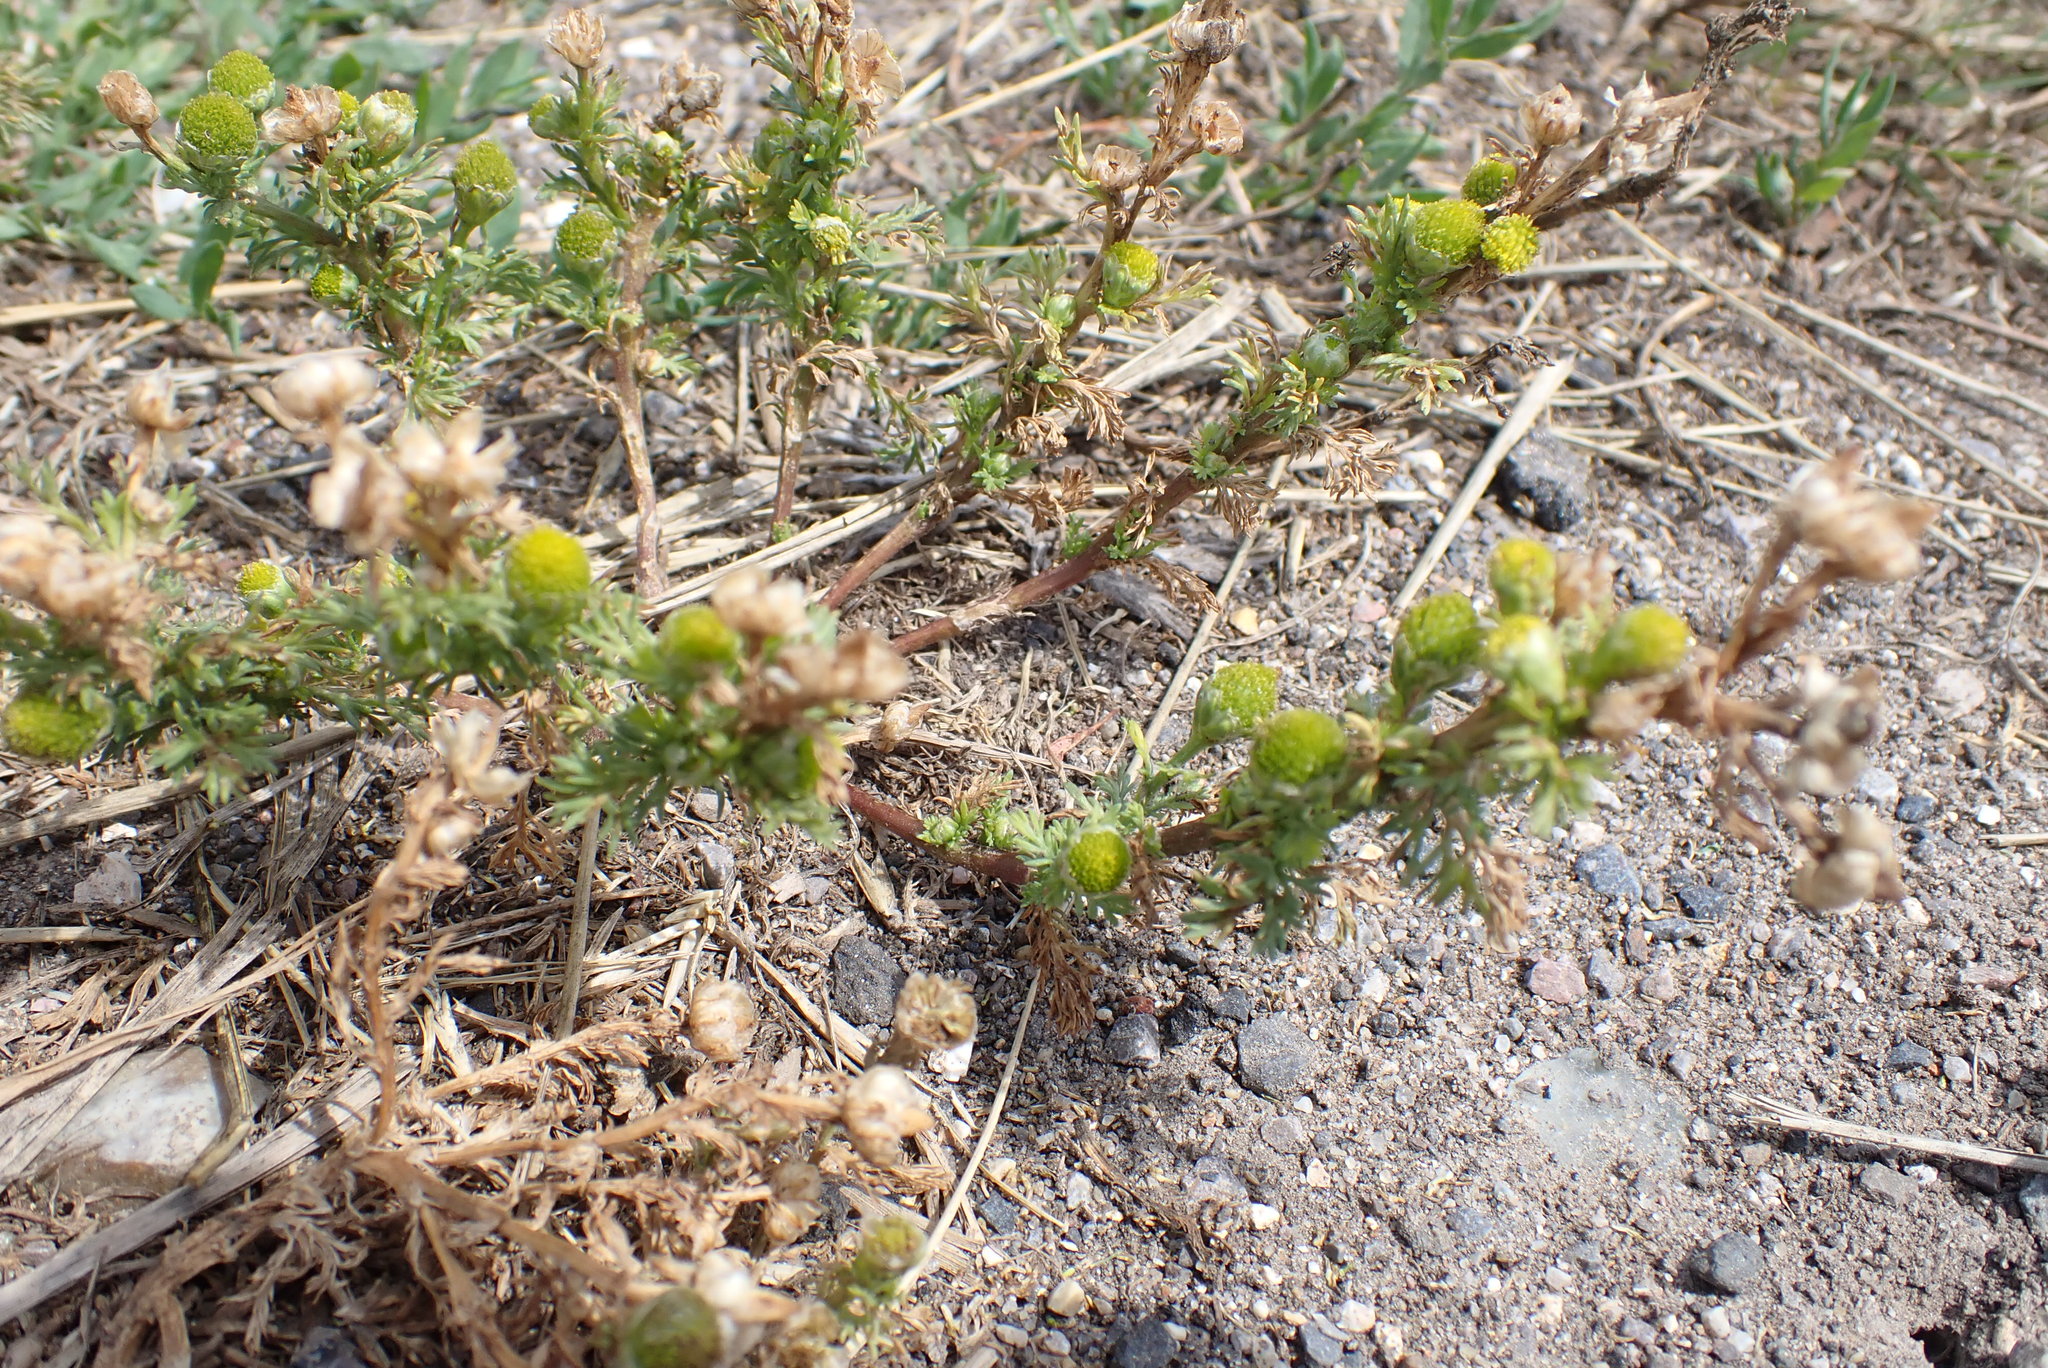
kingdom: Plantae
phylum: Tracheophyta
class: Magnoliopsida
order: Asterales
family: Asteraceae
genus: Matricaria
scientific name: Matricaria discoidea
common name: Disc mayweed
